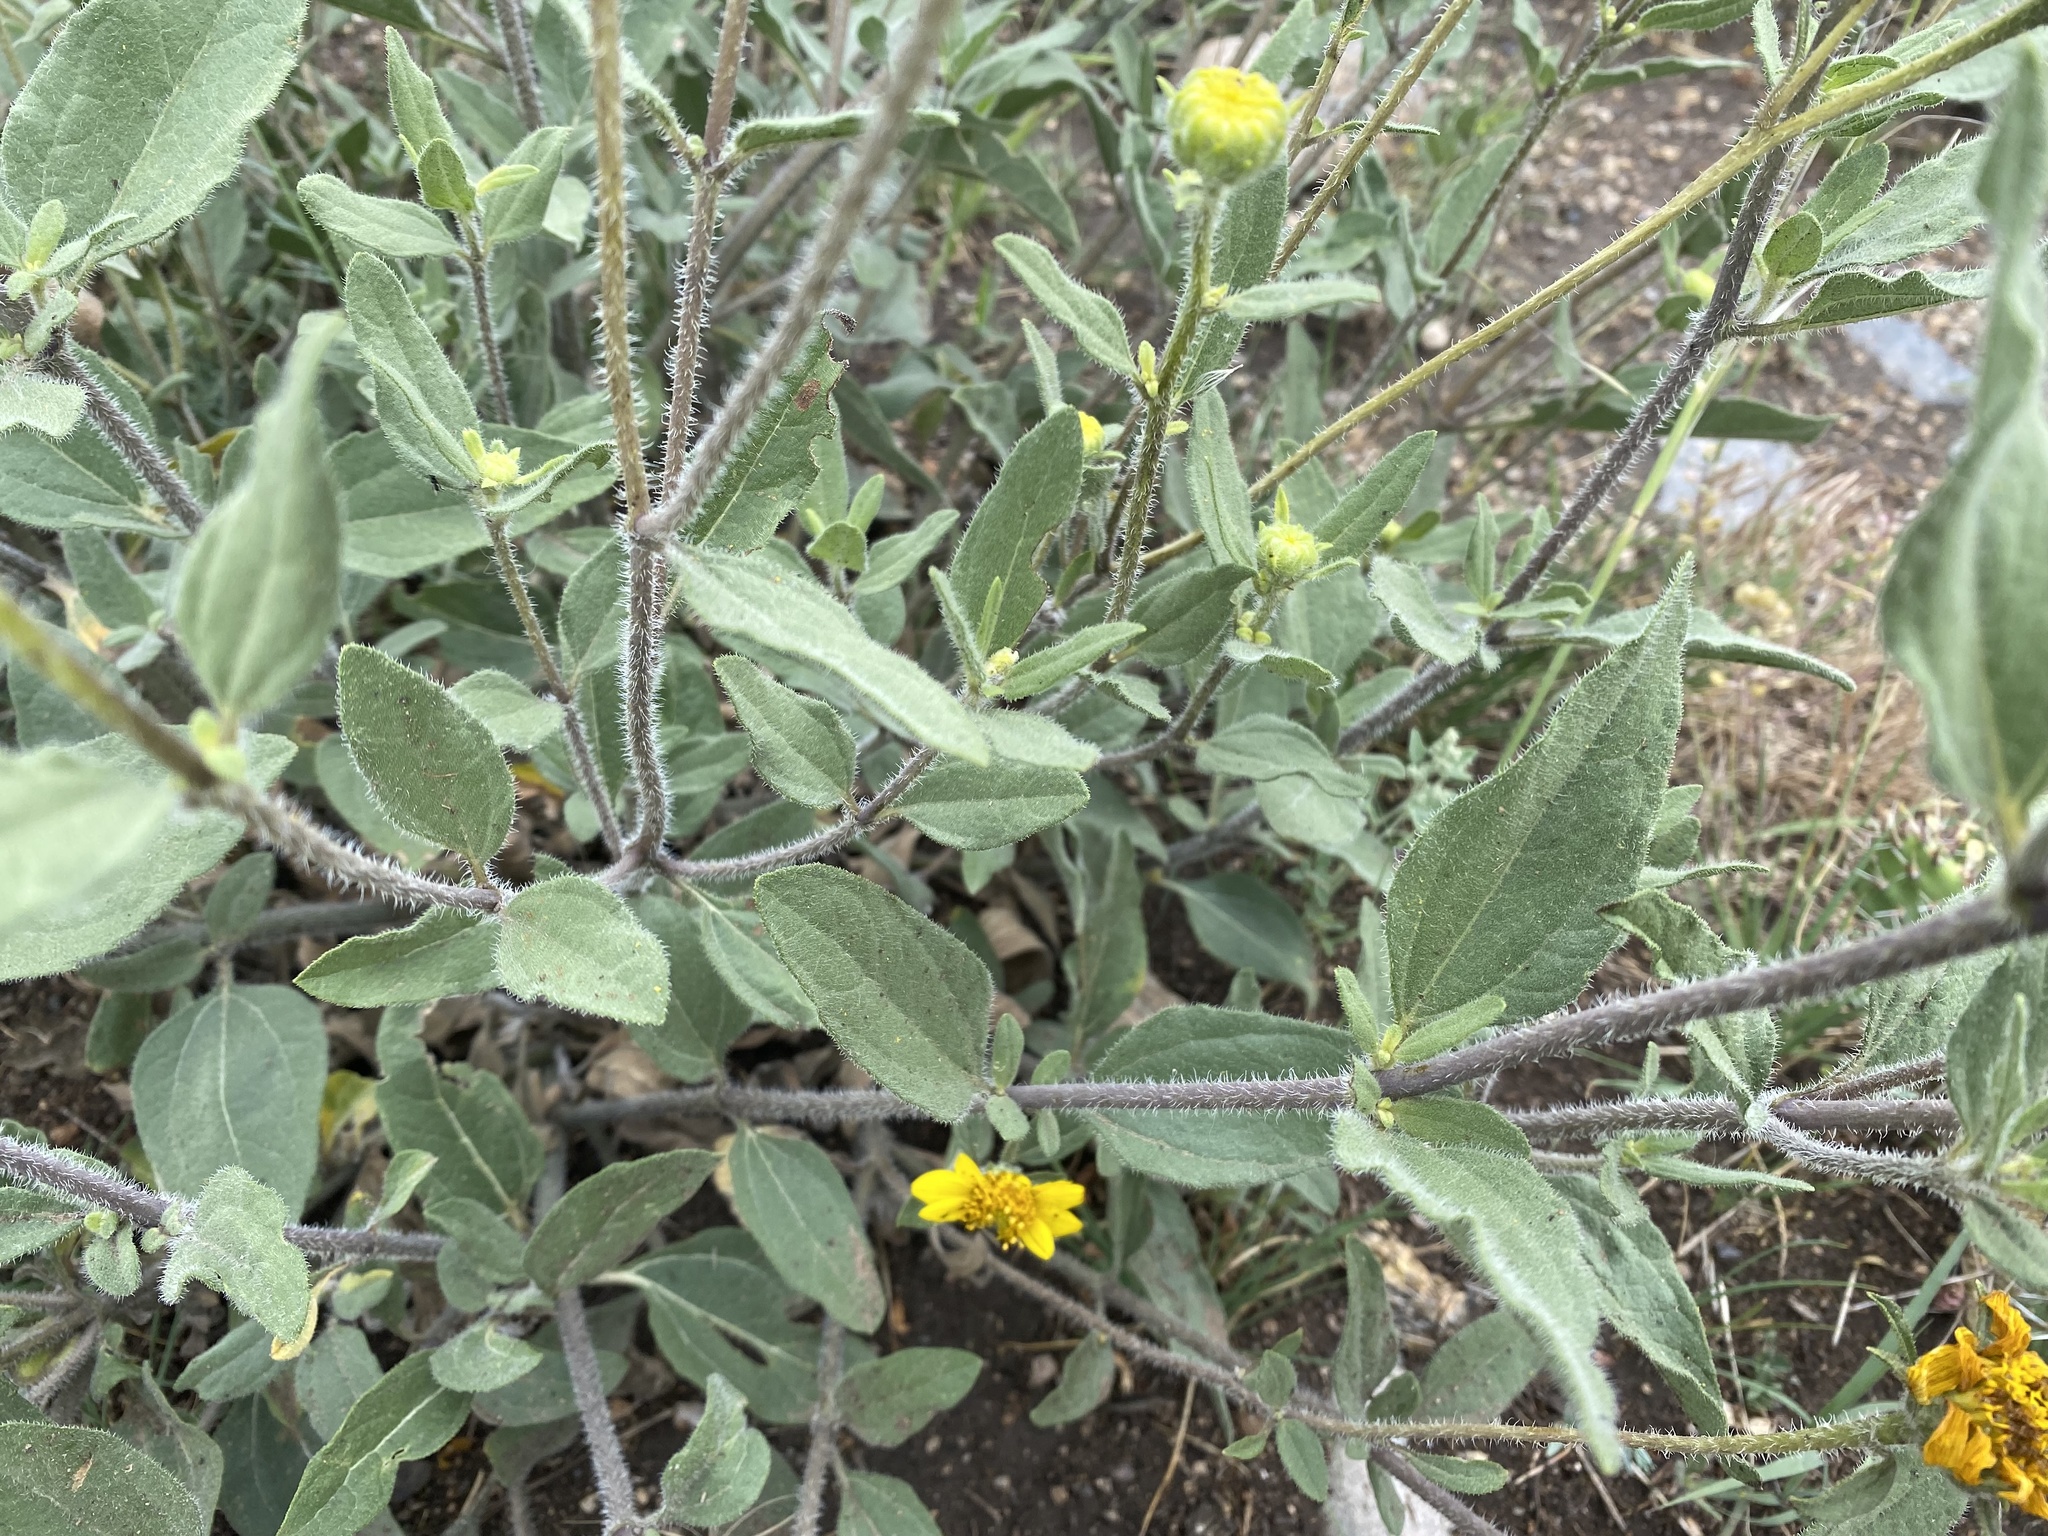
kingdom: Plantae
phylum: Tracheophyta
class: Magnoliopsida
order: Asterales
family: Asteraceae
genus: Helianthus
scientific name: Helianthus pumilus
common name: Dwarf sunflower
